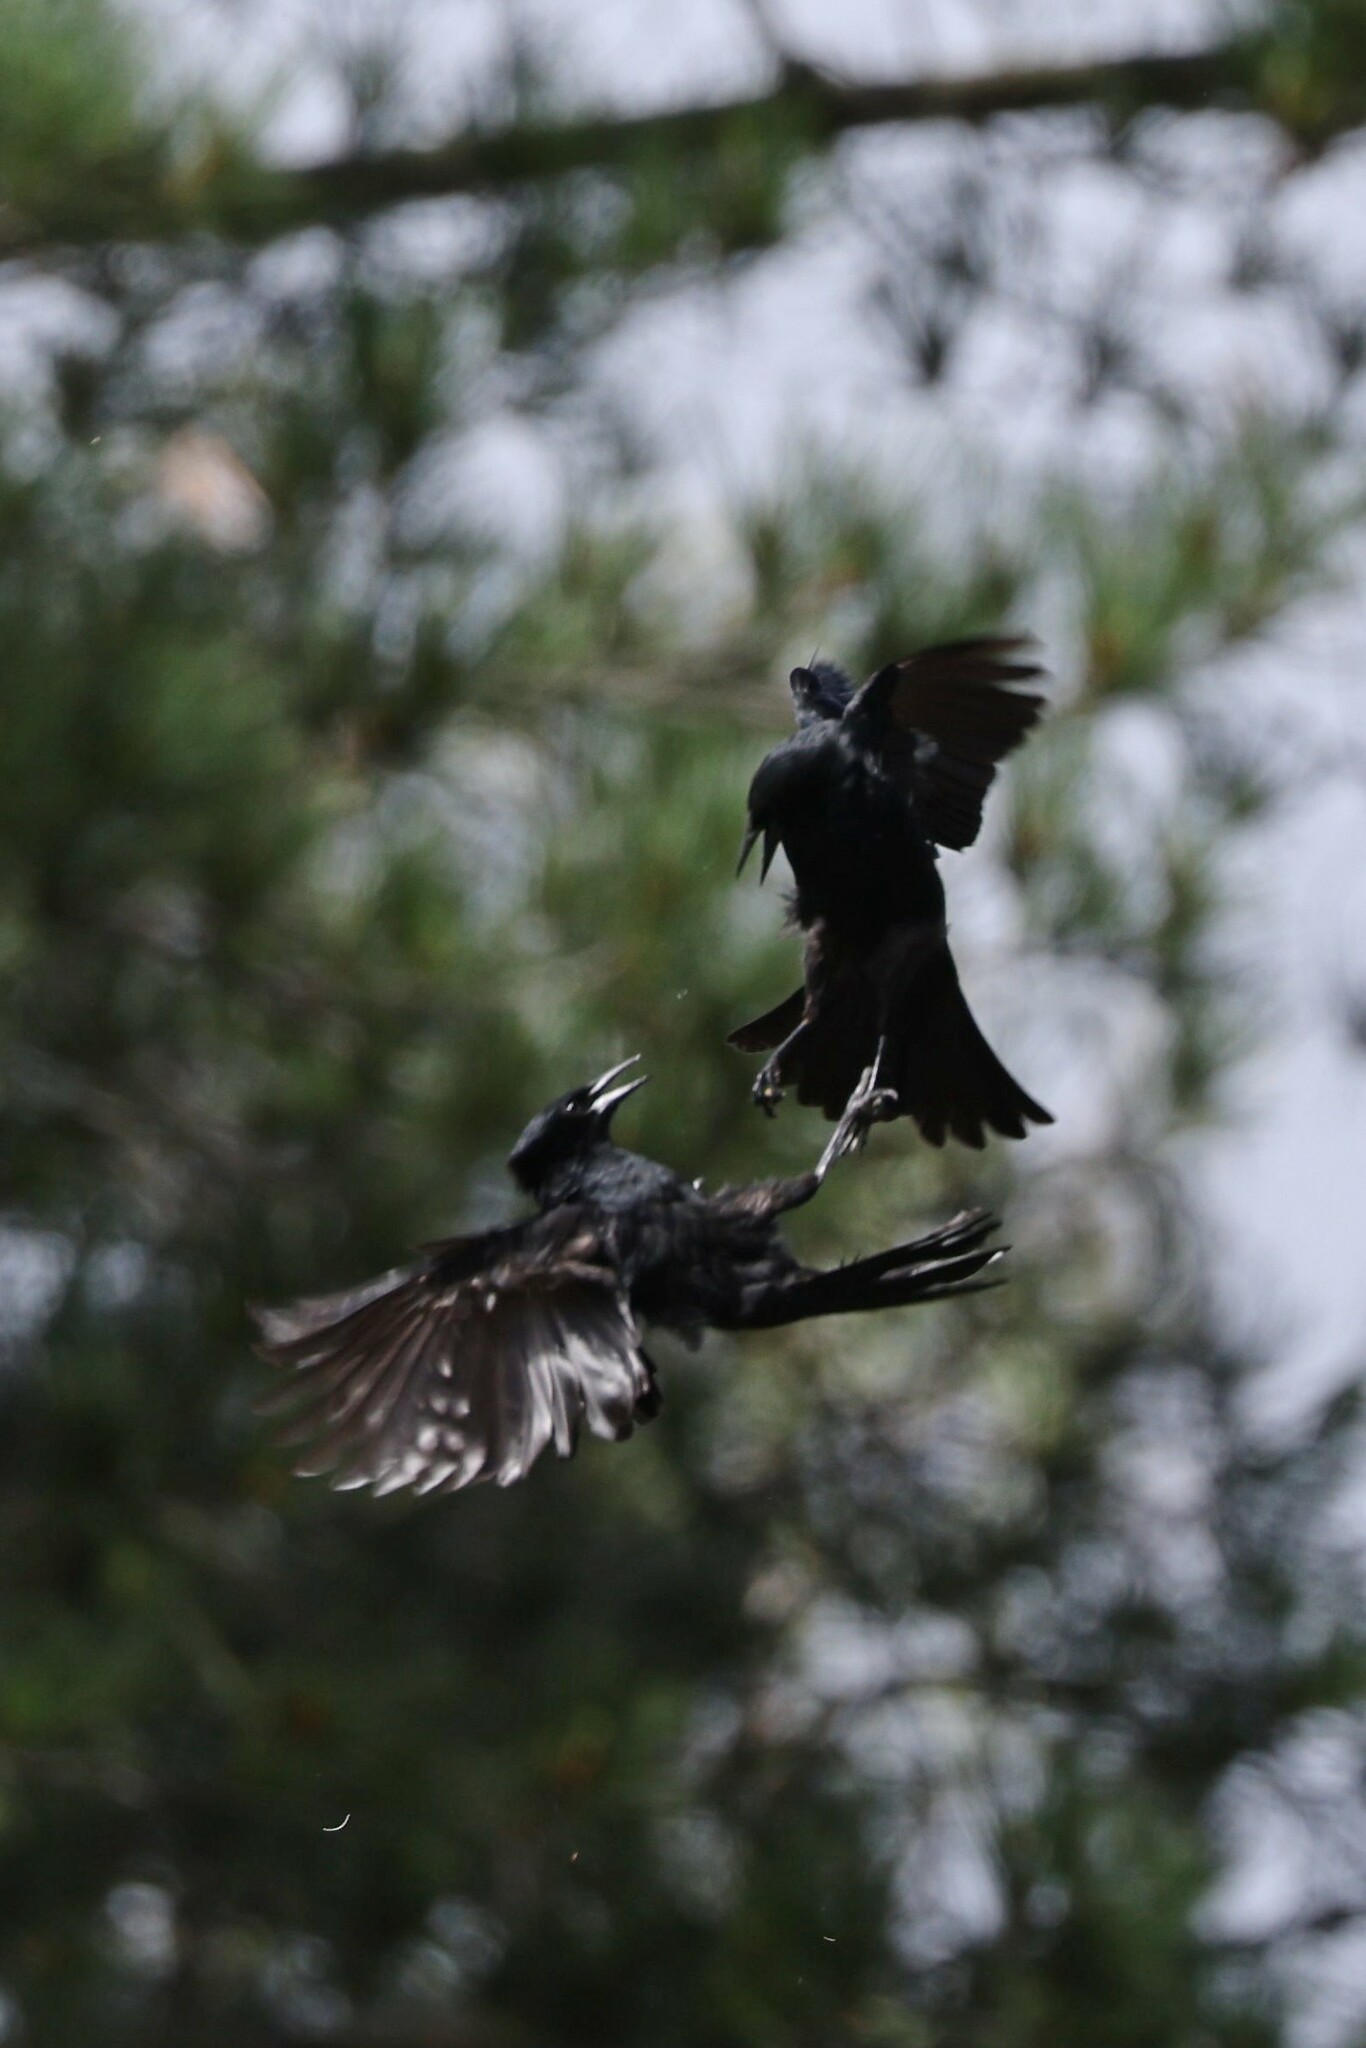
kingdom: Animalia
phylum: Chordata
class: Aves
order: Passeriformes
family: Icteridae
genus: Curaeus
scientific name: Curaeus curaeus
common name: Austral blackbird
